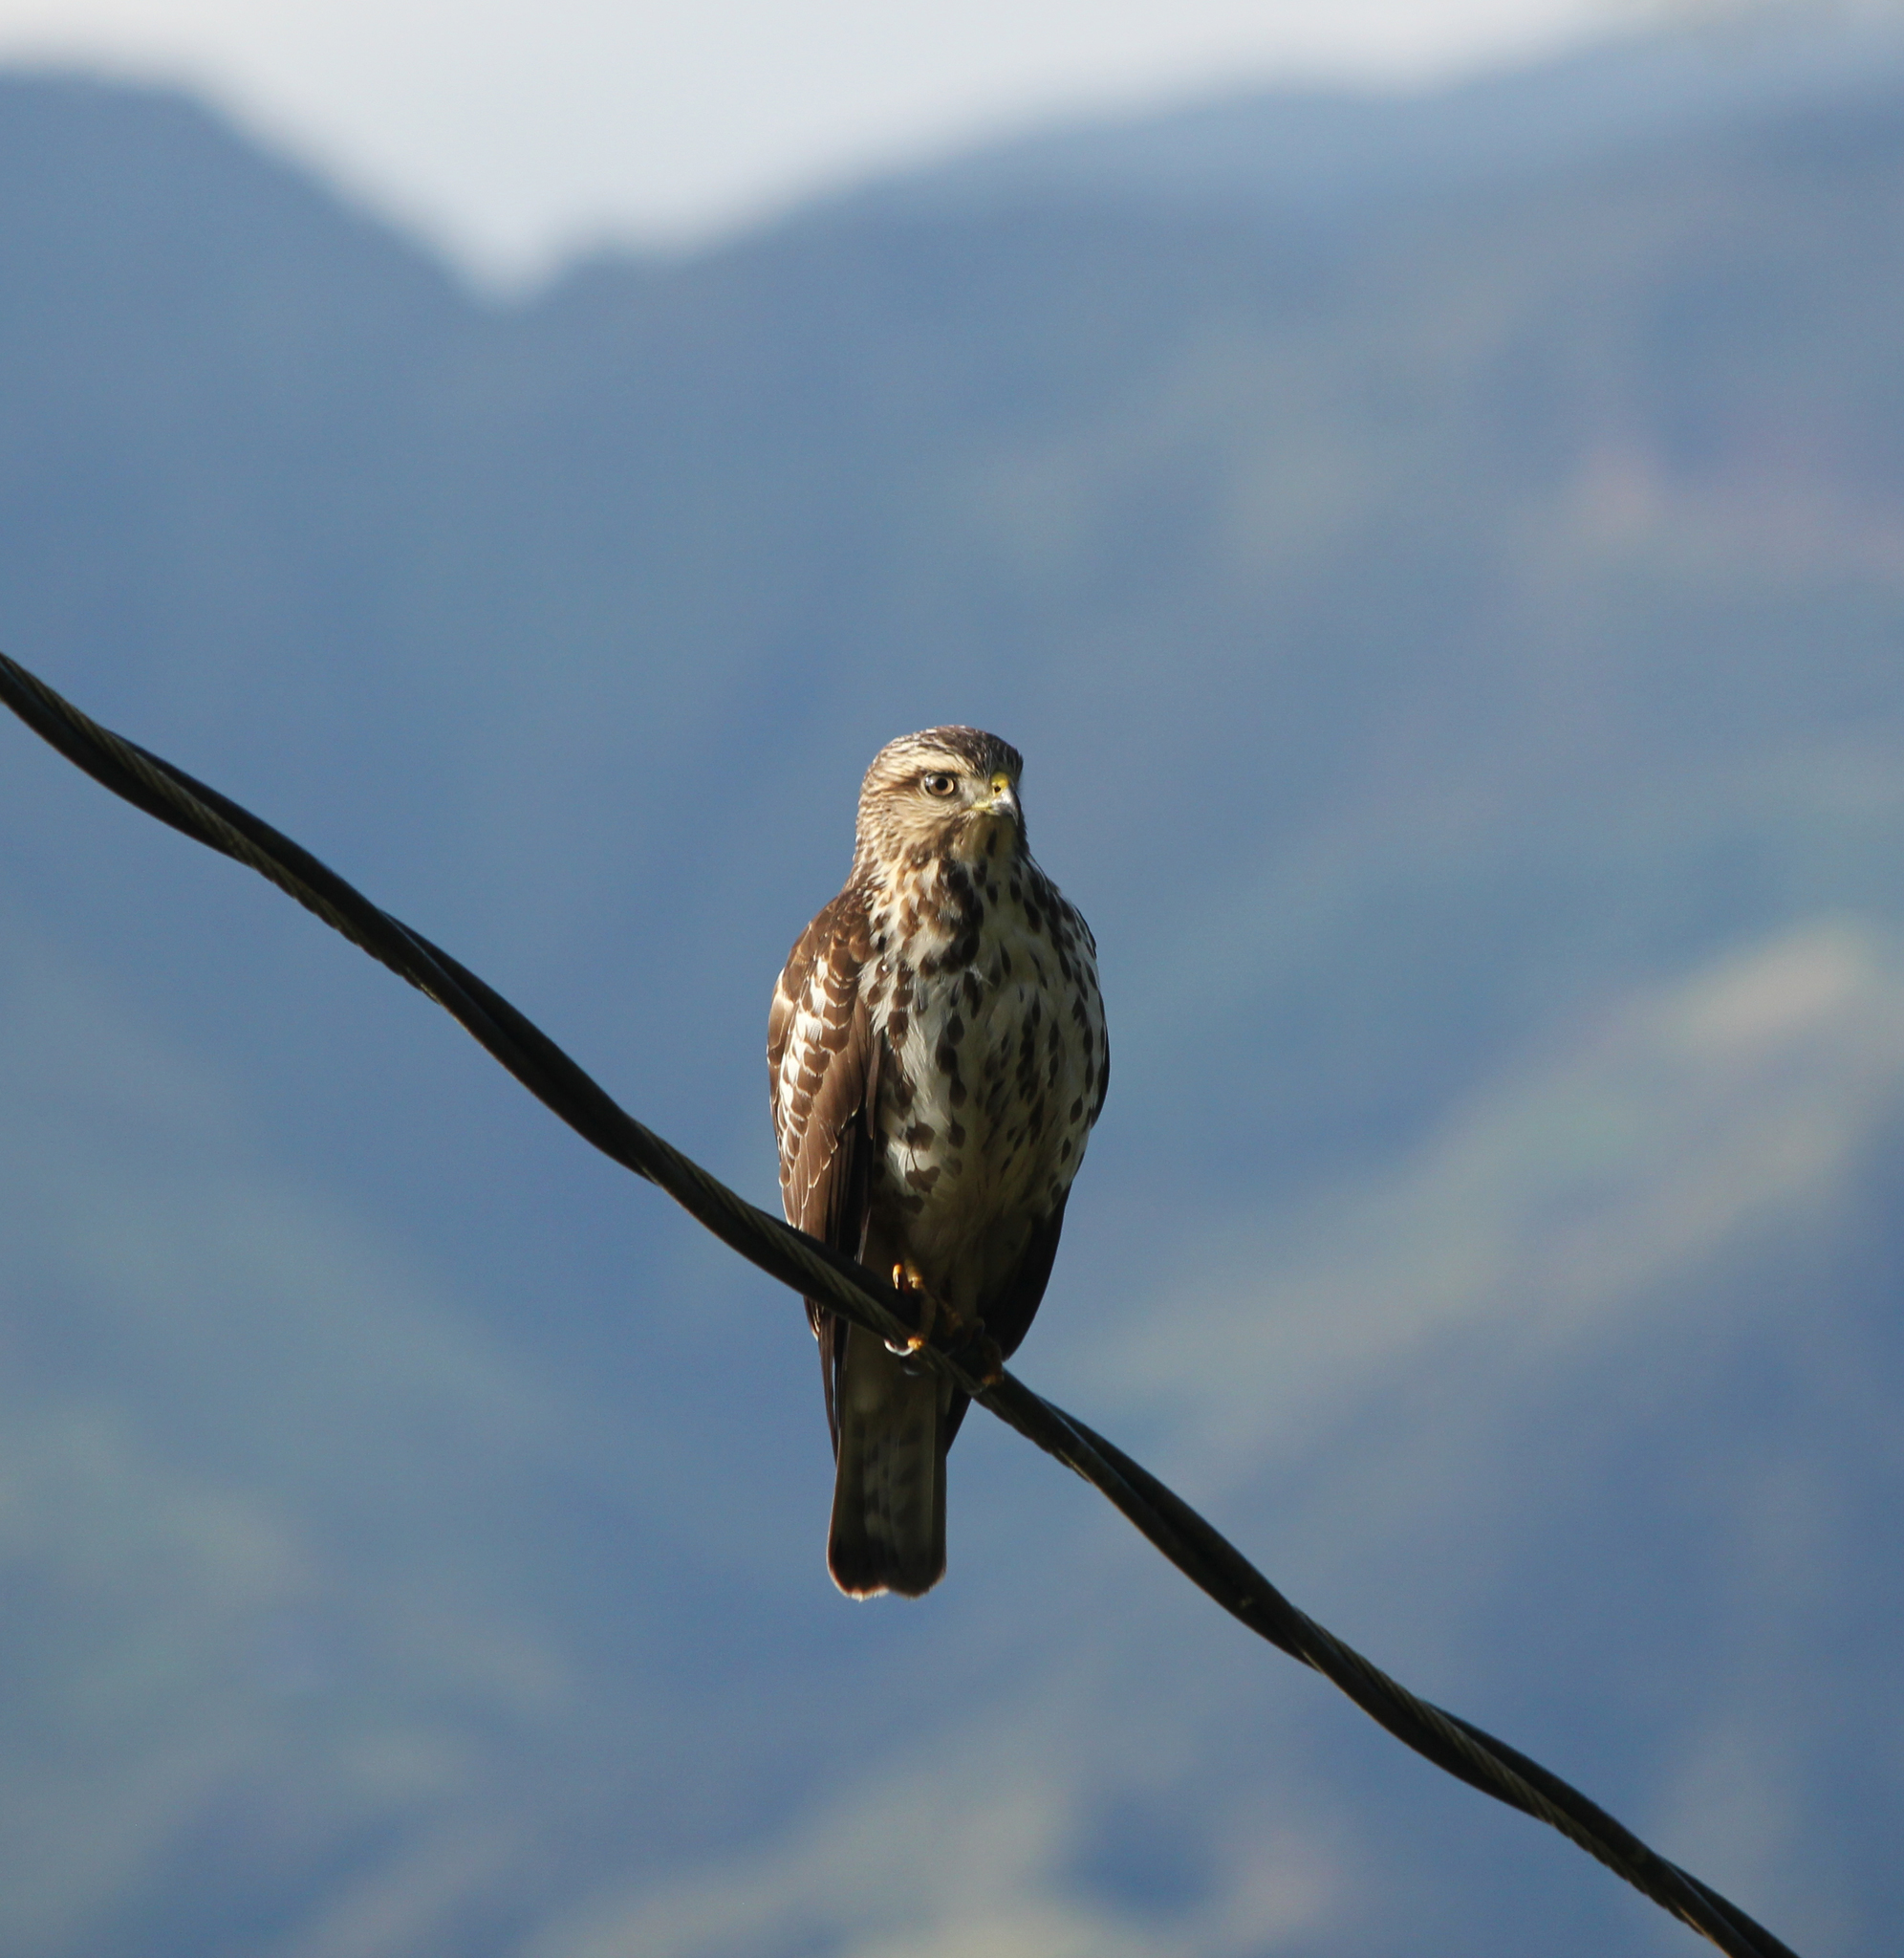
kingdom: Animalia
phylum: Chordata
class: Aves
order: Accipitriformes
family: Accipitridae
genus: Buteo
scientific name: Buteo platypterus
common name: Broad-winged hawk
